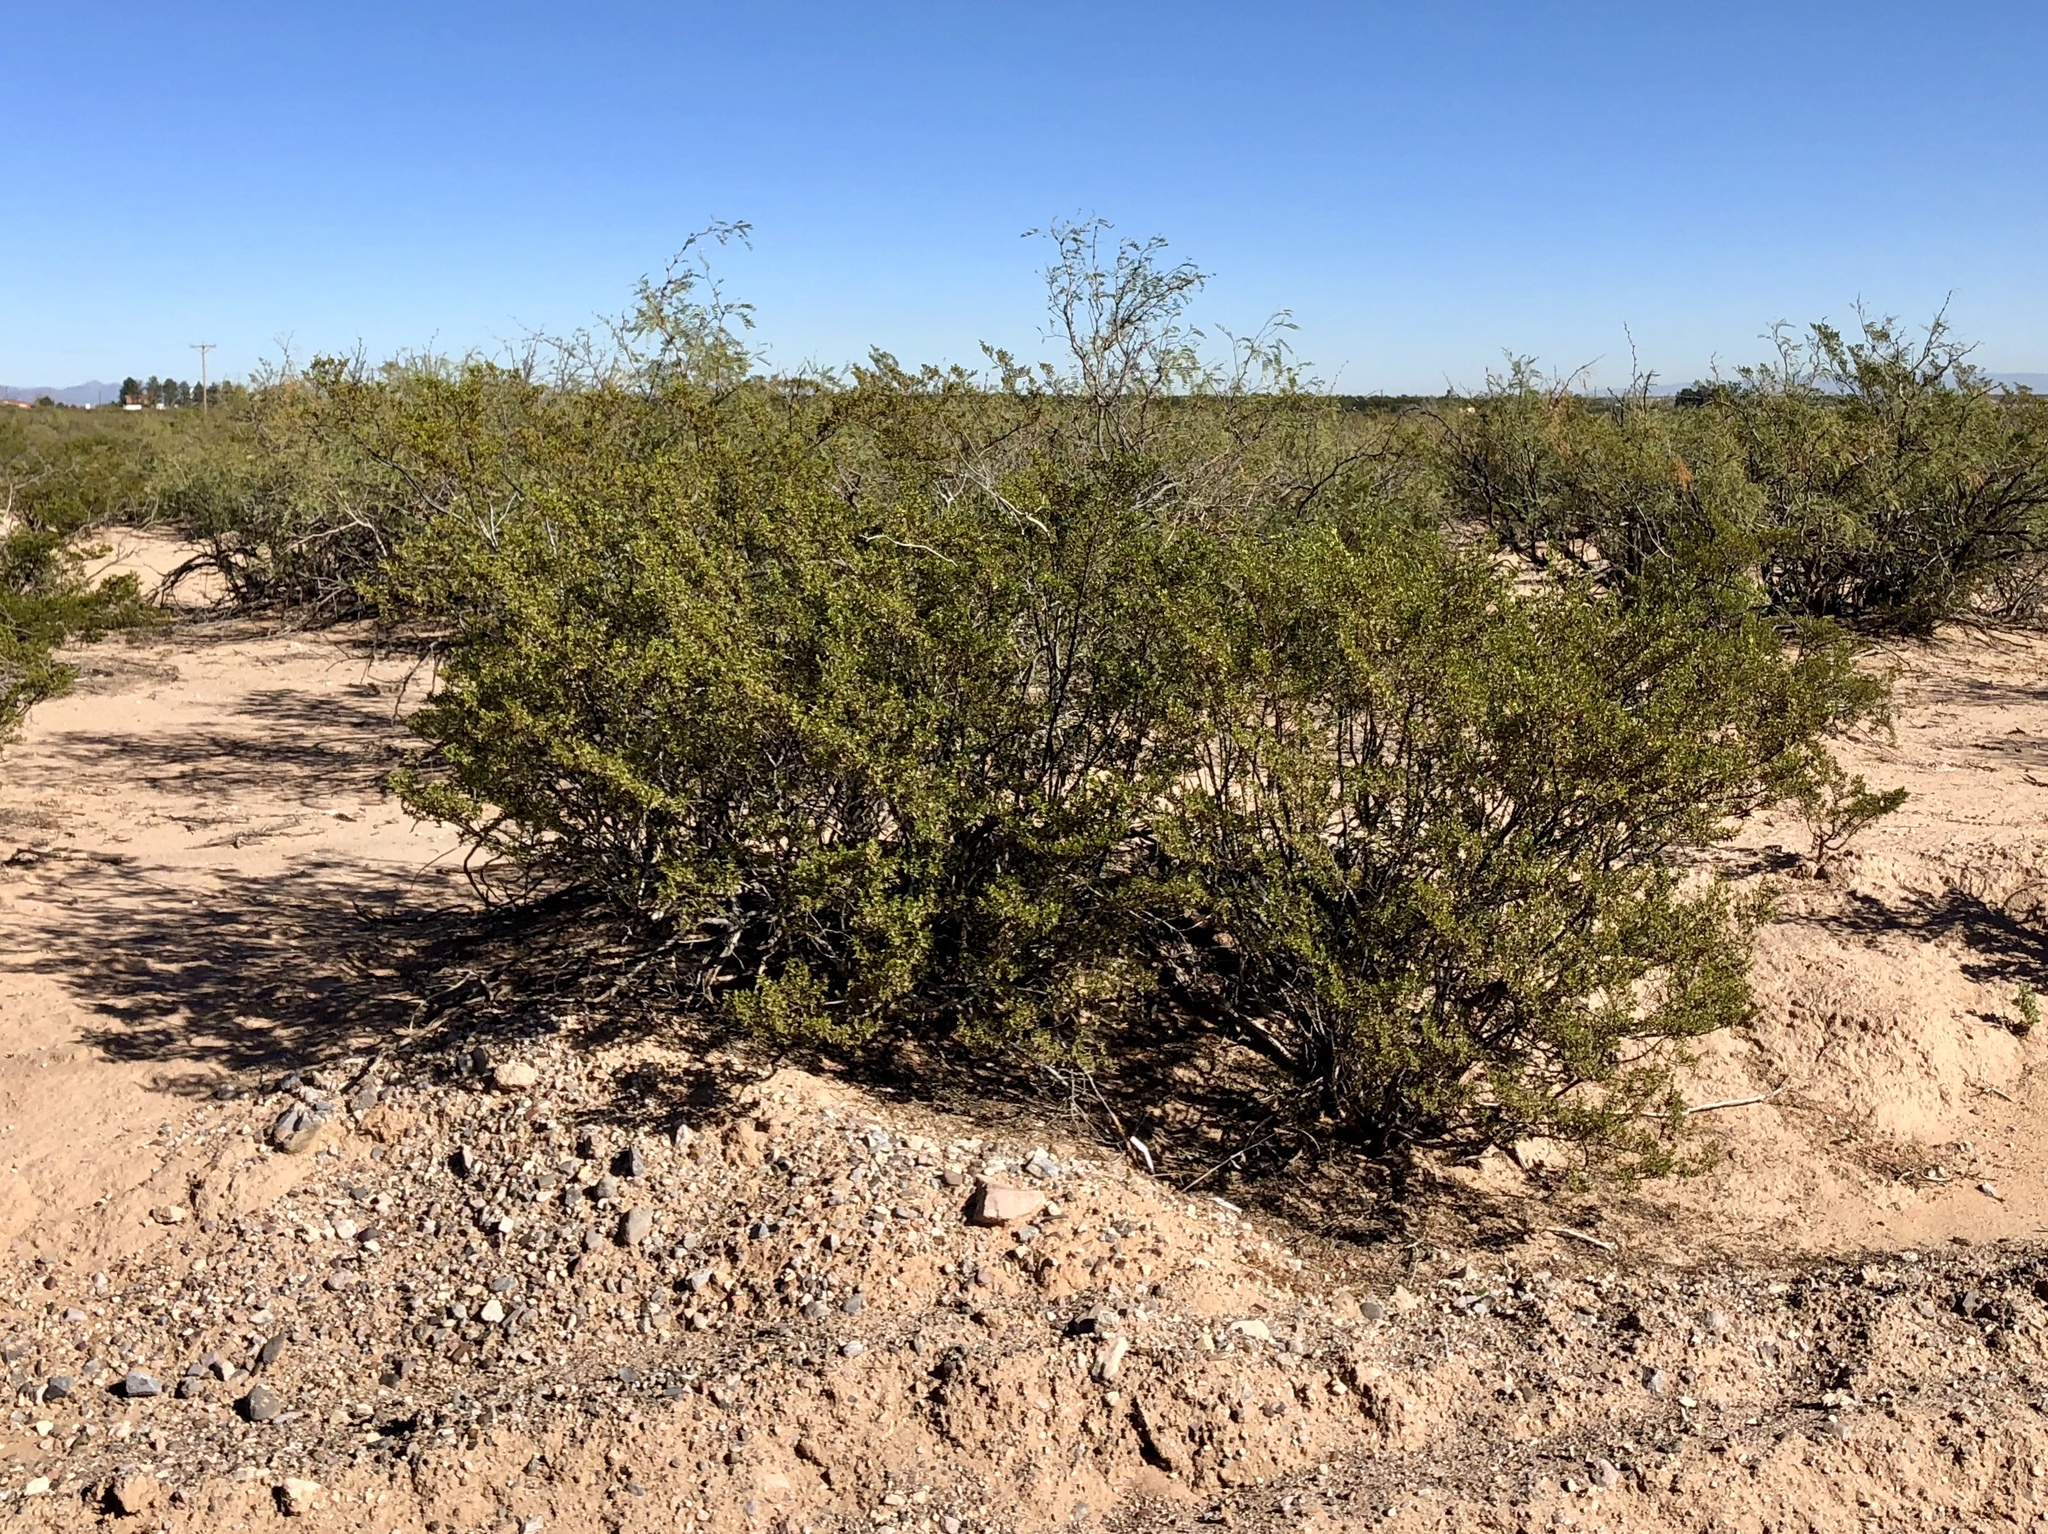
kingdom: Plantae
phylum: Tracheophyta
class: Magnoliopsida
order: Zygophyllales
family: Zygophyllaceae
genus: Larrea
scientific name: Larrea tridentata
